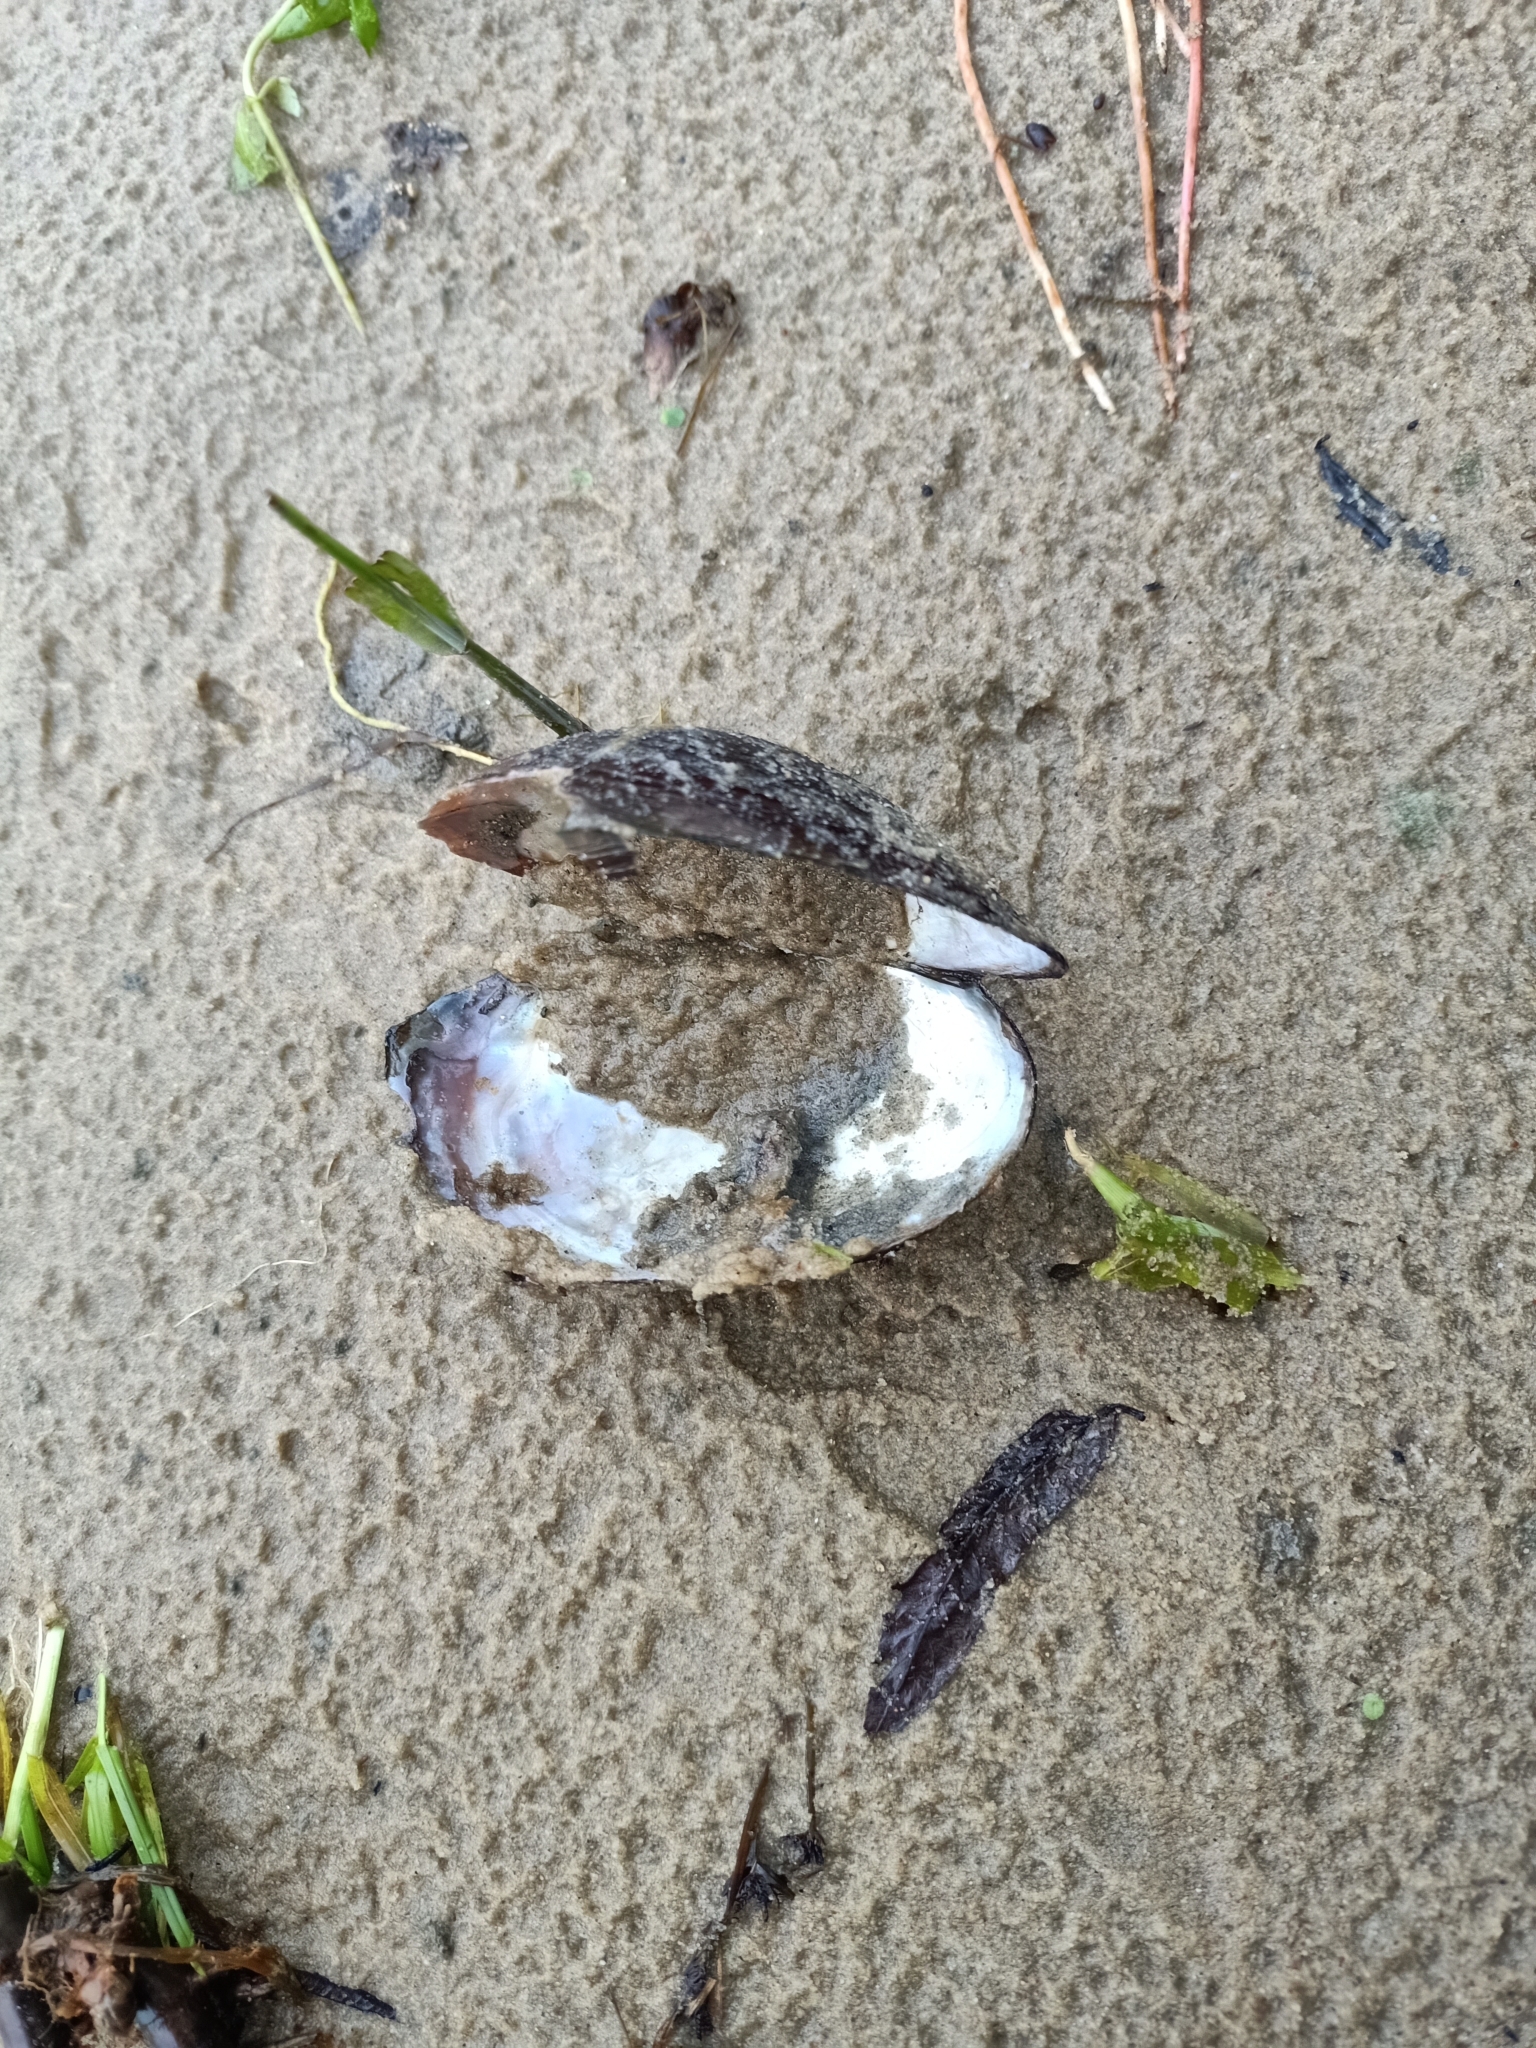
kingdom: Animalia
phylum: Mollusca
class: Bivalvia
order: Unionida
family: Unionidae
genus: Sinanodonta
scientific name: Sinanodonta woodiana
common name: Chinese pond mussel
